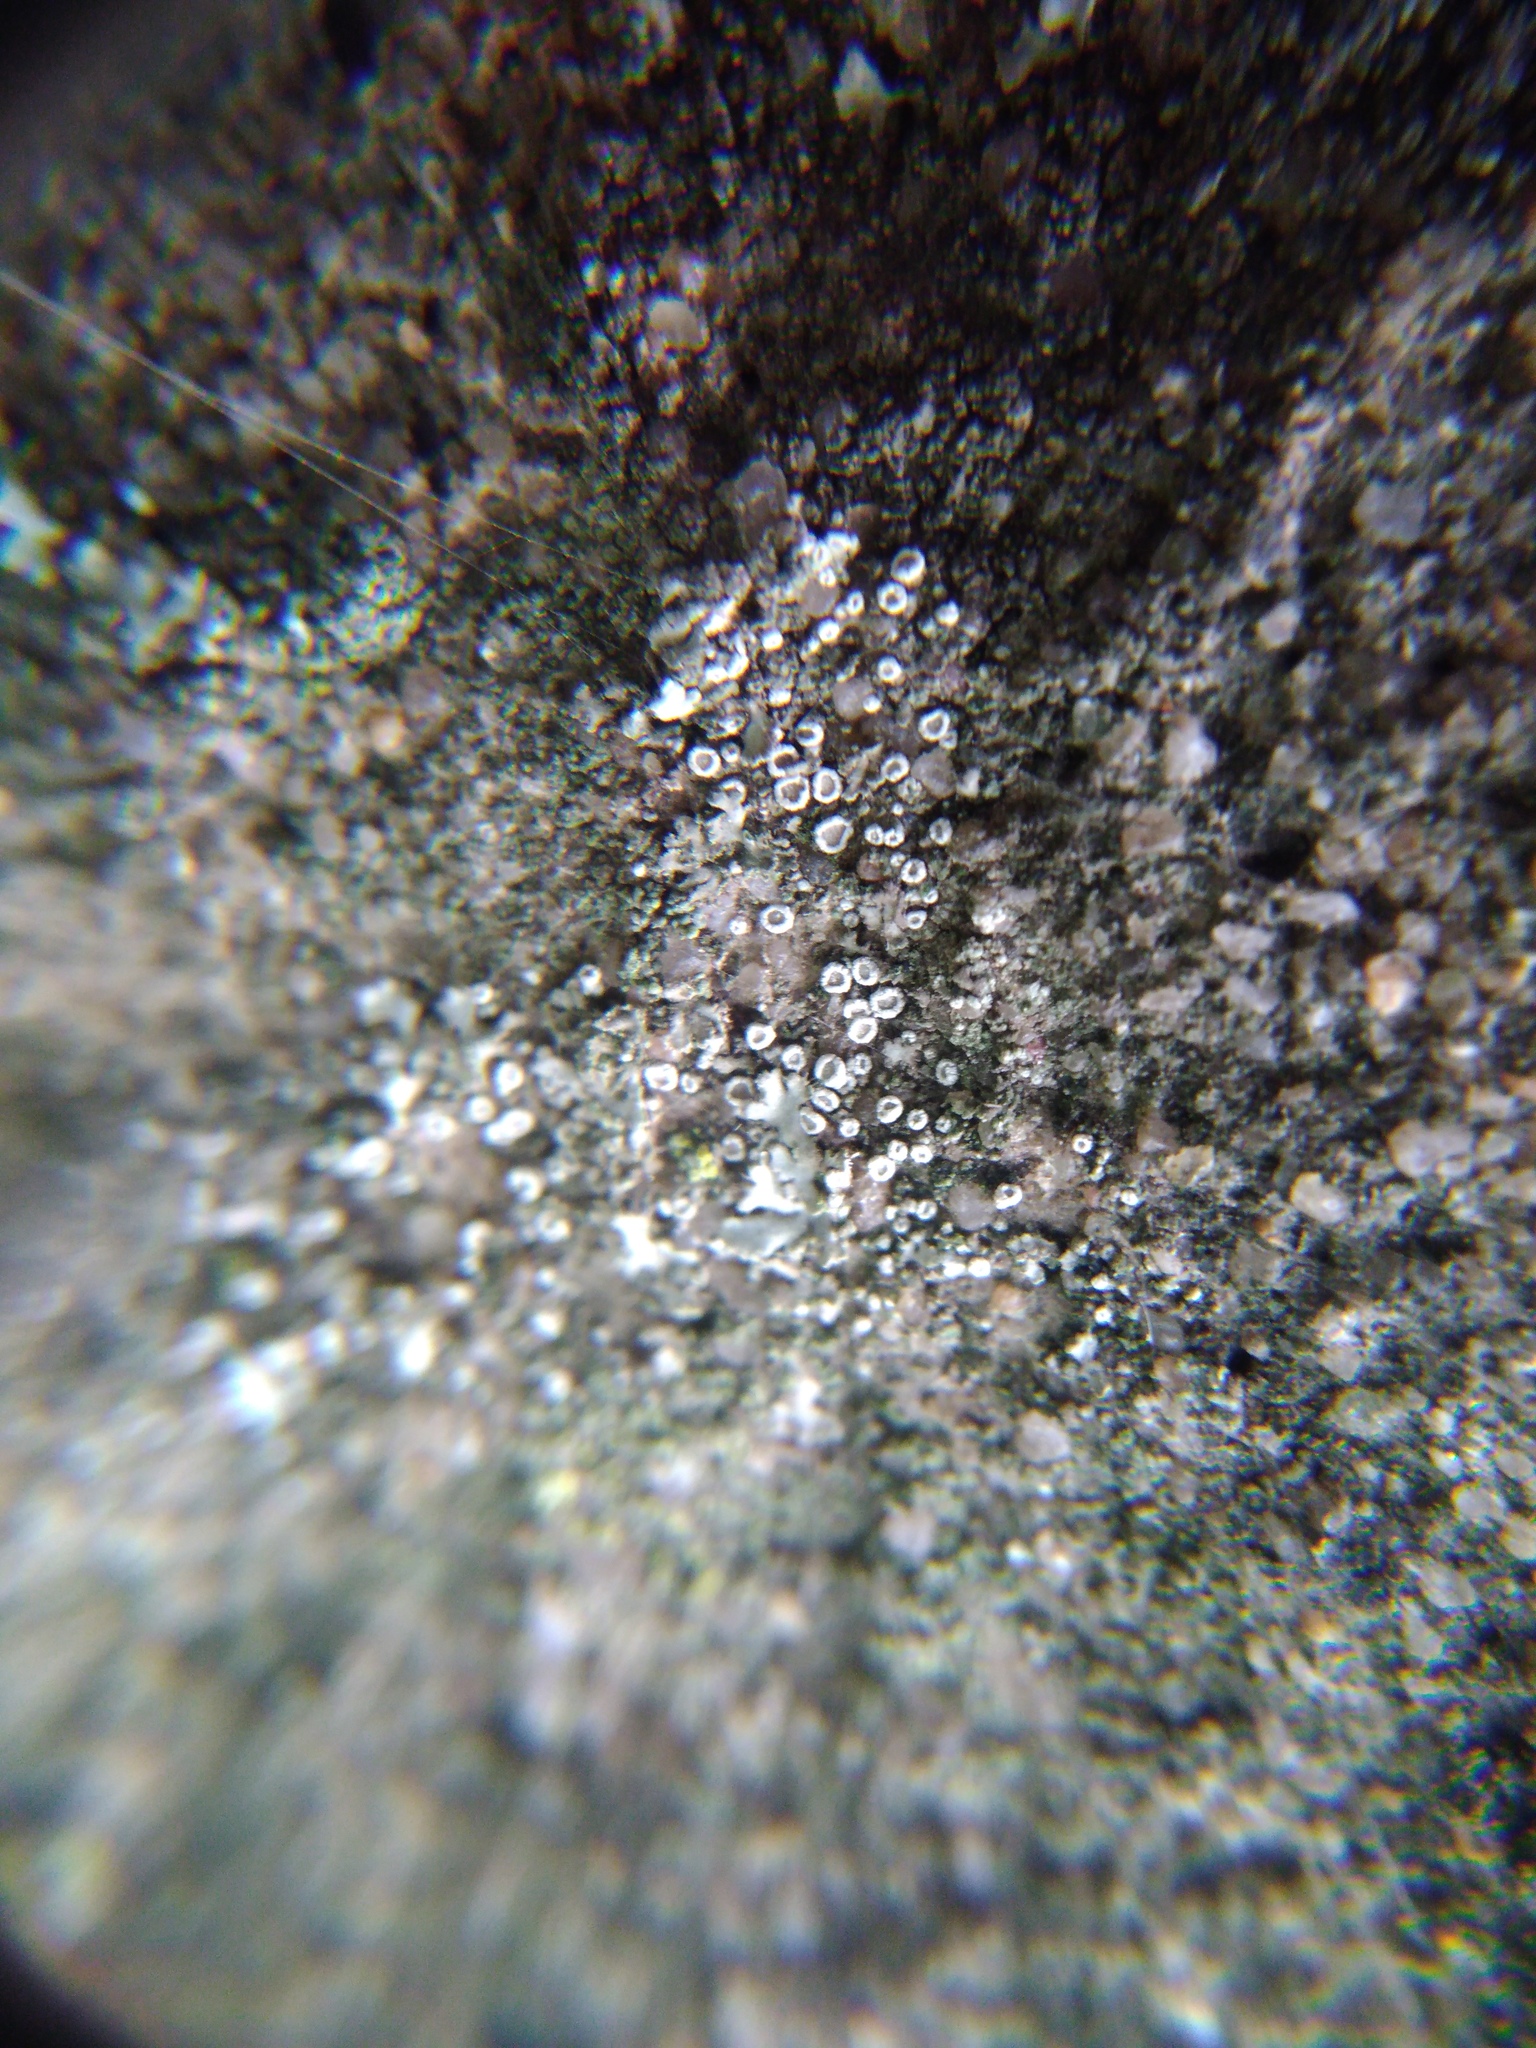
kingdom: Fungi
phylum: Ascomycota
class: Lecanoromycetes
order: Lecanorales
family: Lecanoraceae
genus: Polyozosia
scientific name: Polyozosia semipallida
